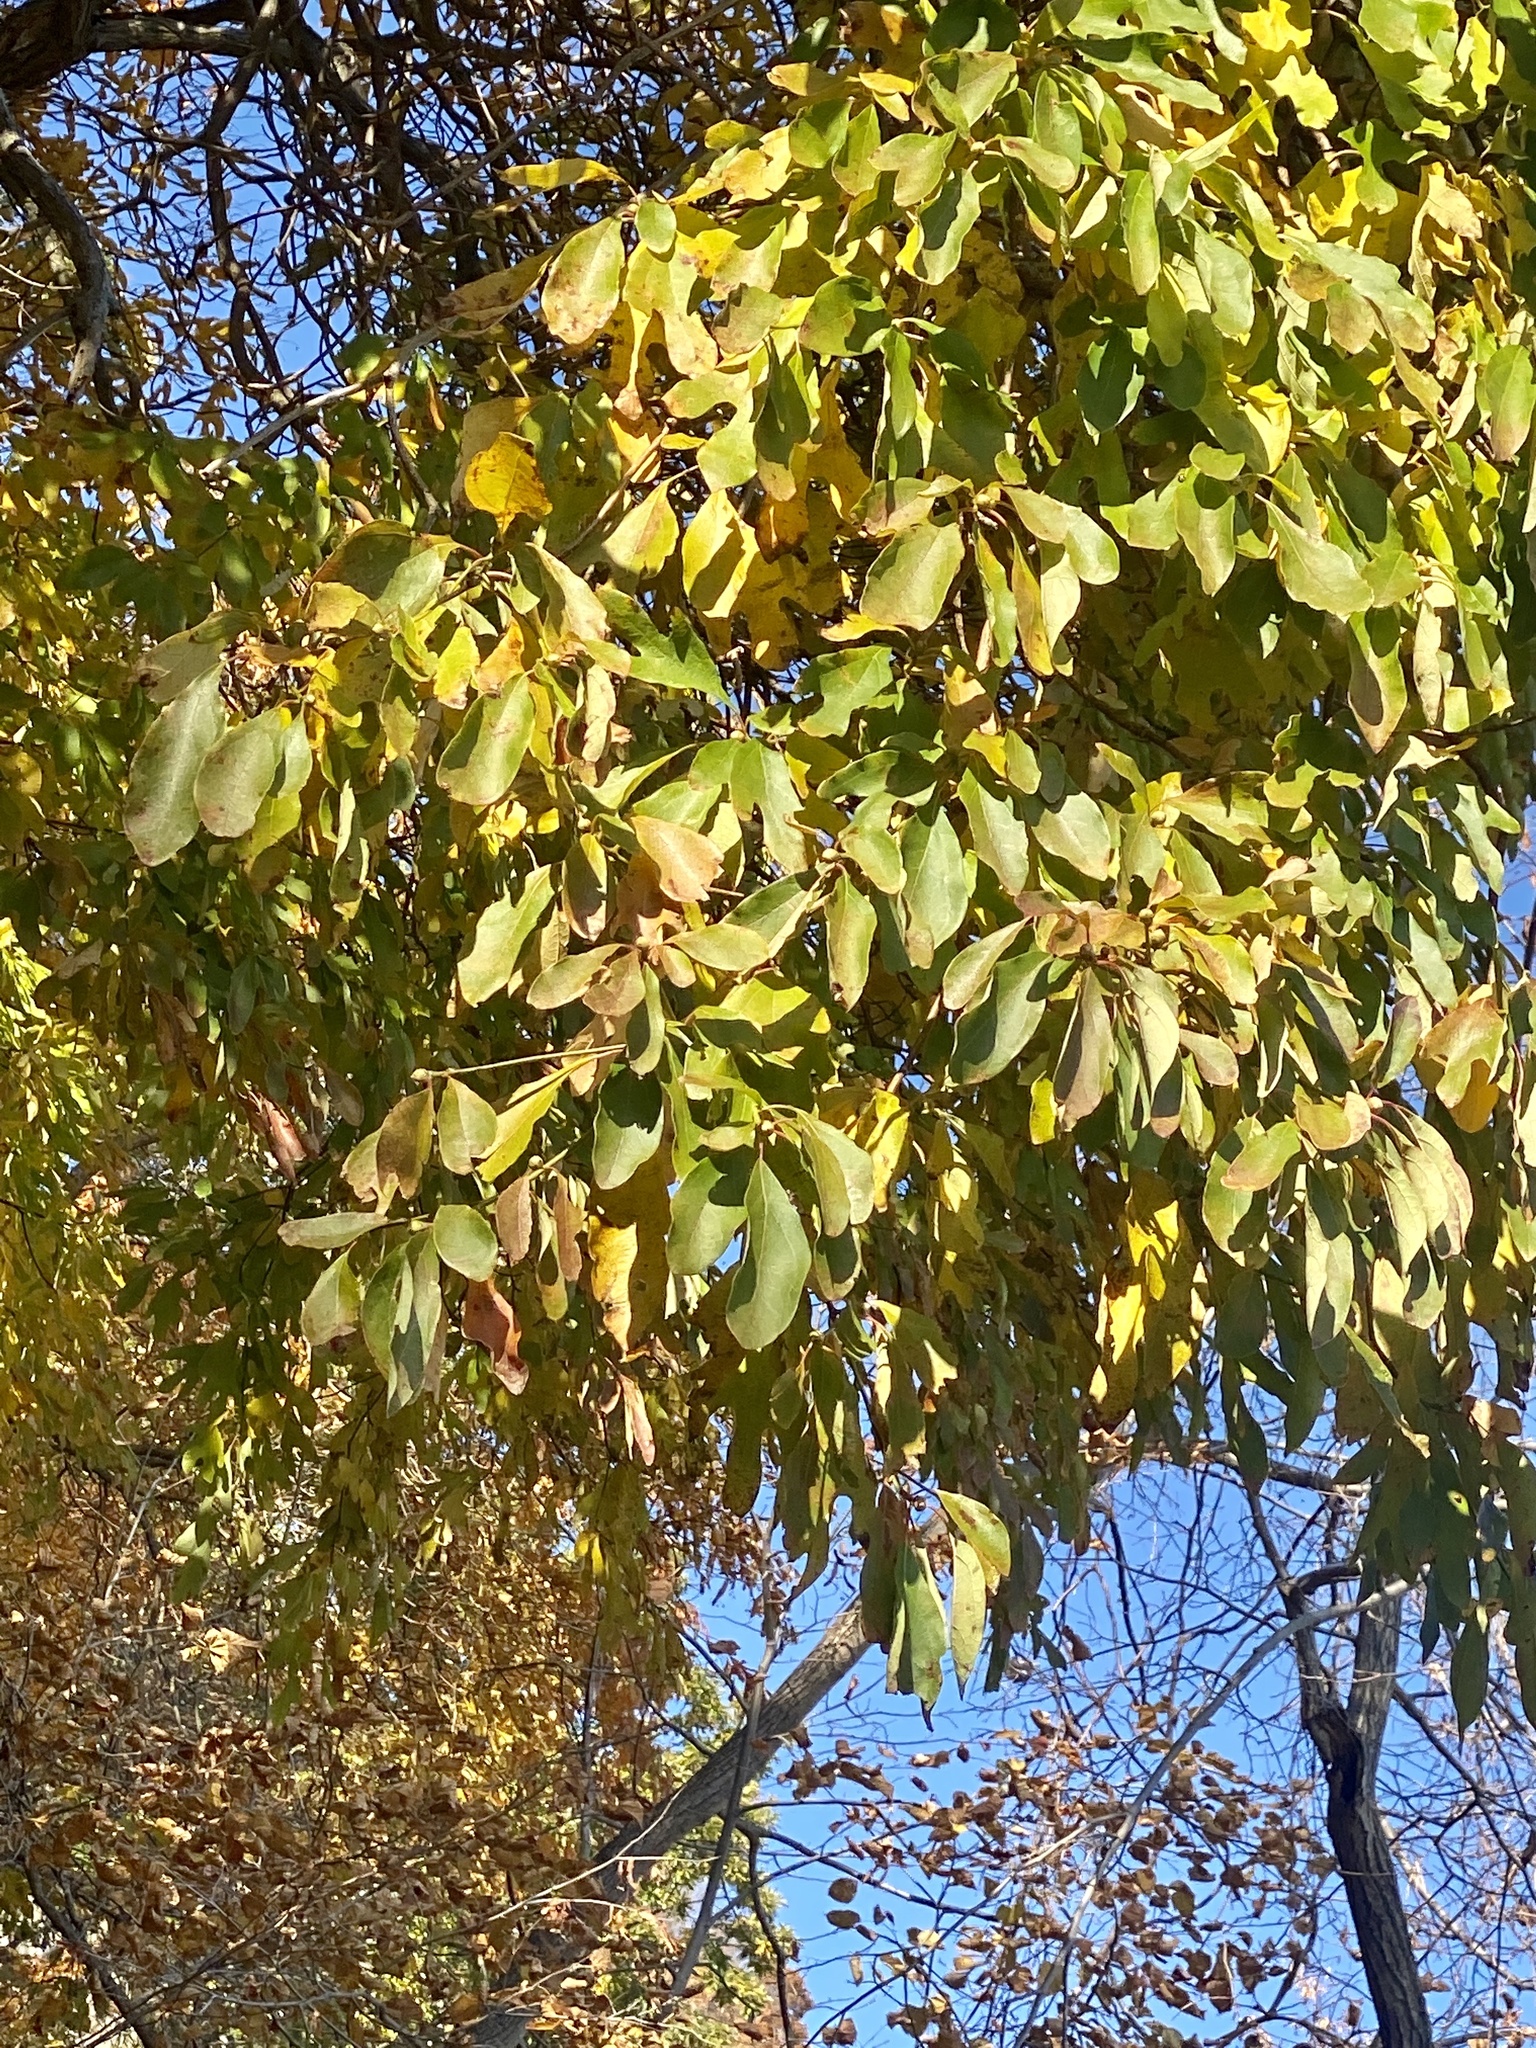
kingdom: Plantae
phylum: Tracheophyta
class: Magnoliopsida
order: Laurales
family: Lauraceae
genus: Sassafras
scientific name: Sassafras albidum
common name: Sassafras
